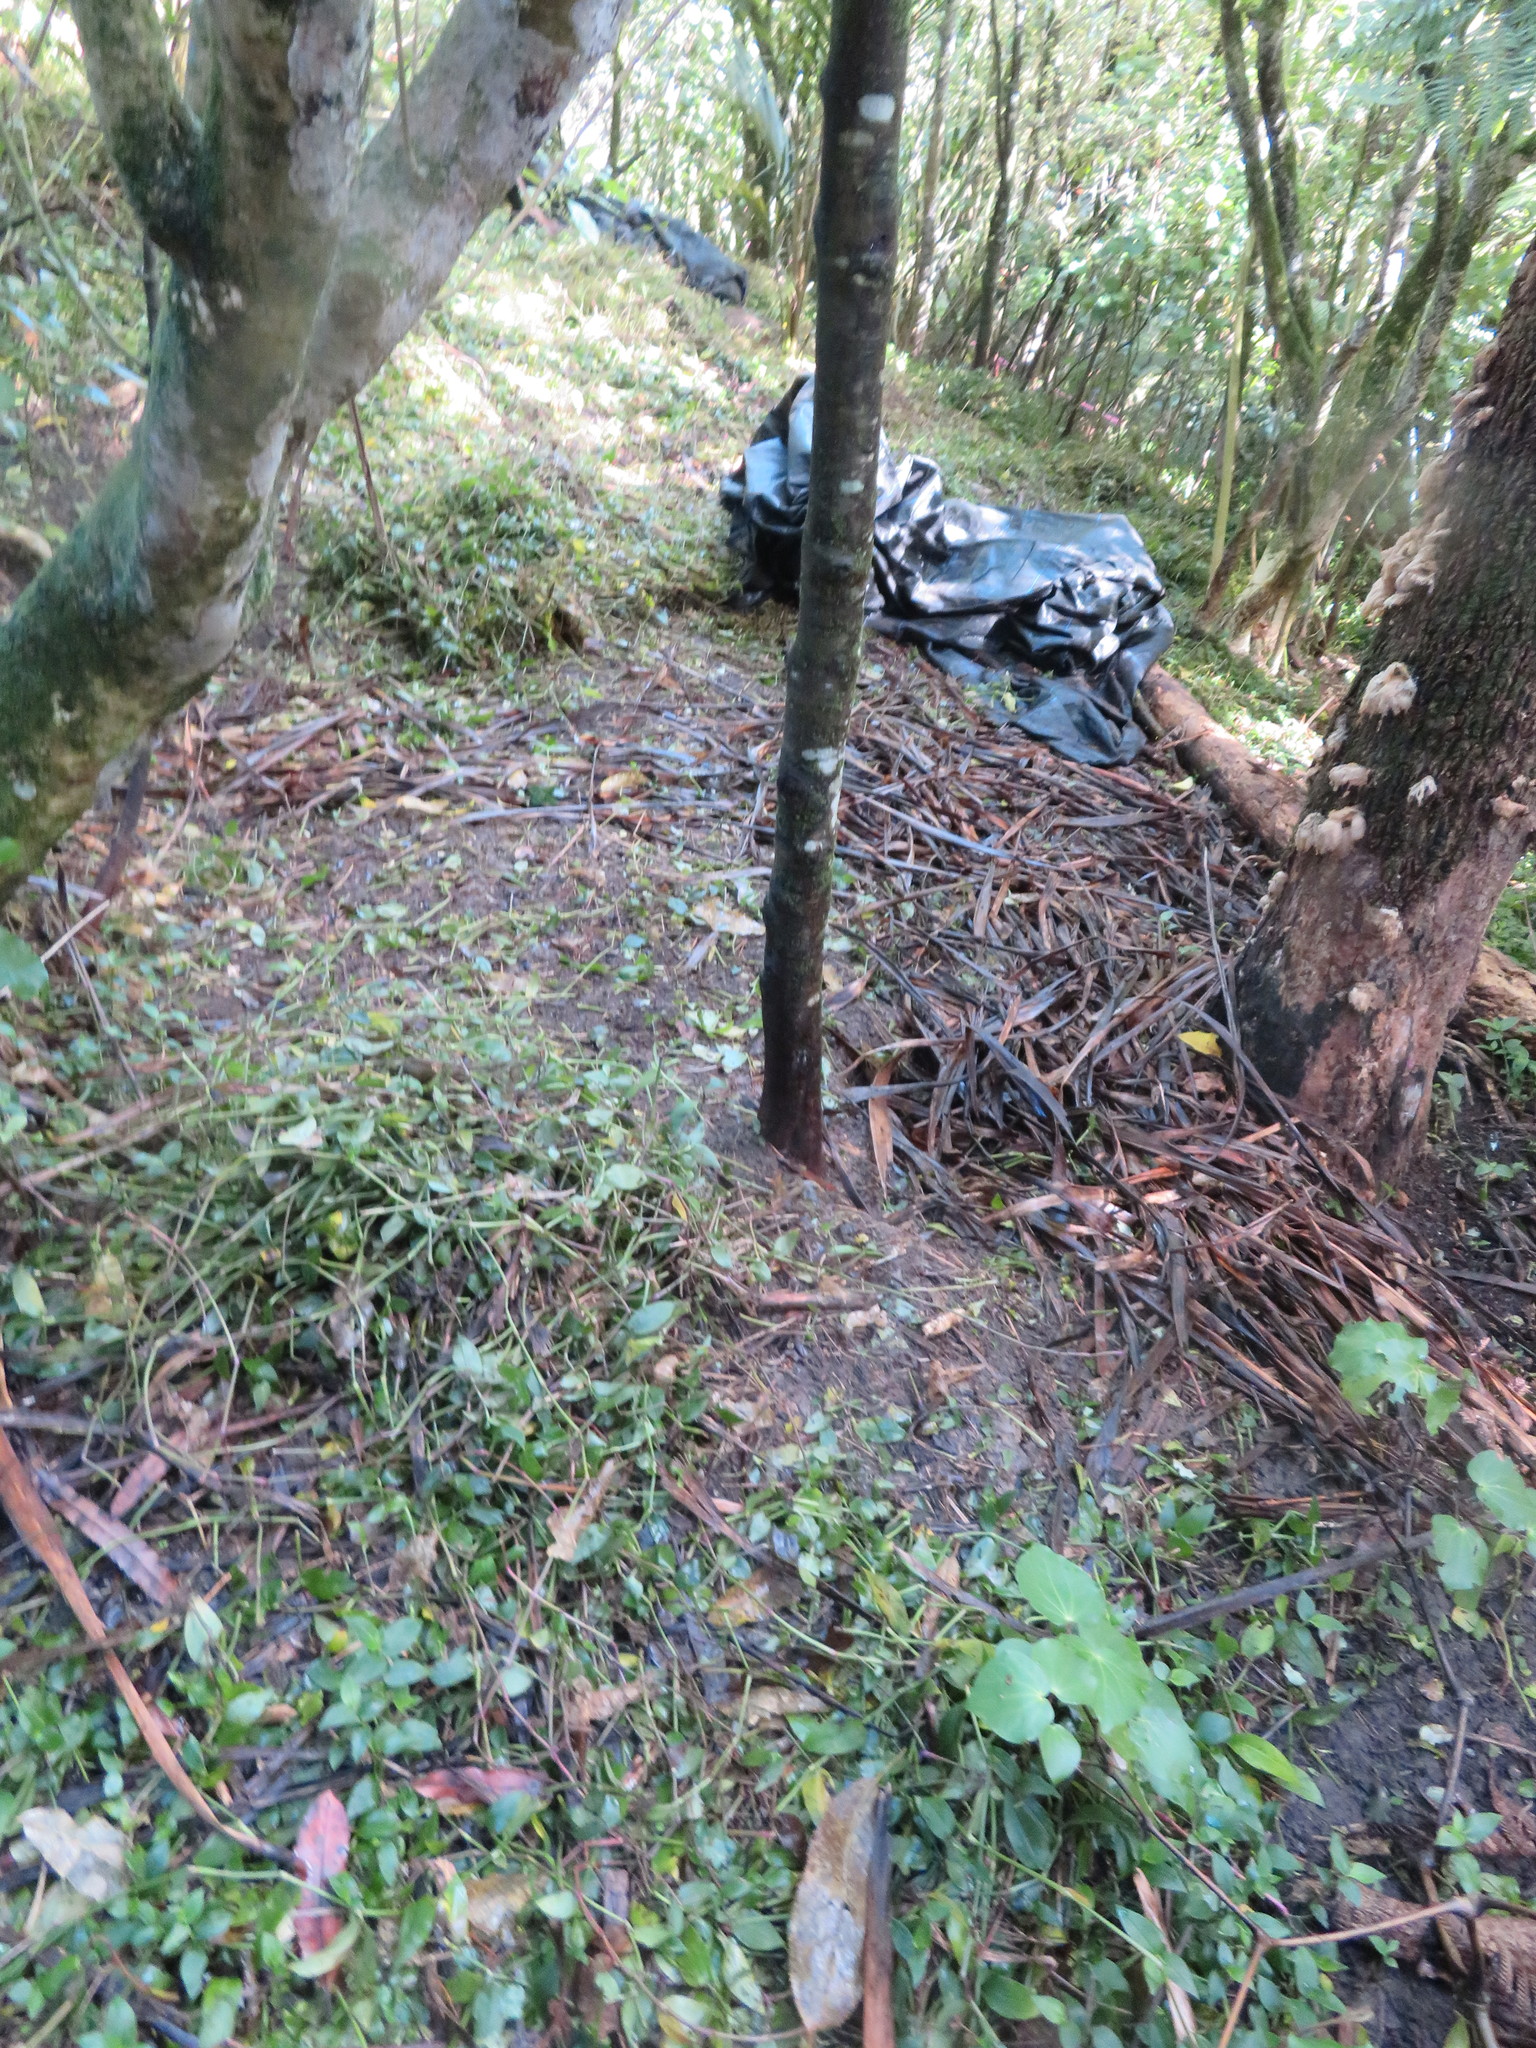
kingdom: Plantae
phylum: Tracheophyta
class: Liliopsida
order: Asparagales
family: Asparagaceae
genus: Cordyline
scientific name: Cordyline australis
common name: Cabbage-palm
